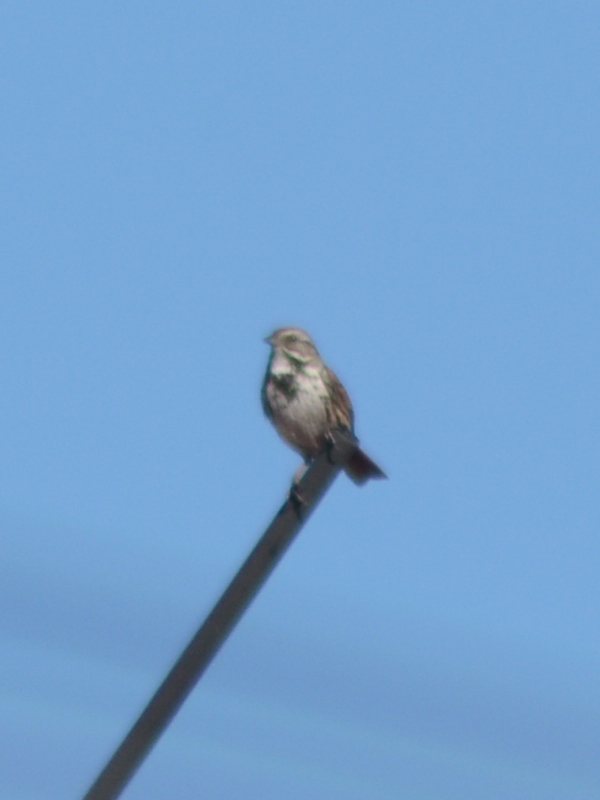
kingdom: Animalia
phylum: Chordata
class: Aves
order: Passeriformes
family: Passerellidae
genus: Melospiza
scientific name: Melospiza melodia
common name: Song sparrow
